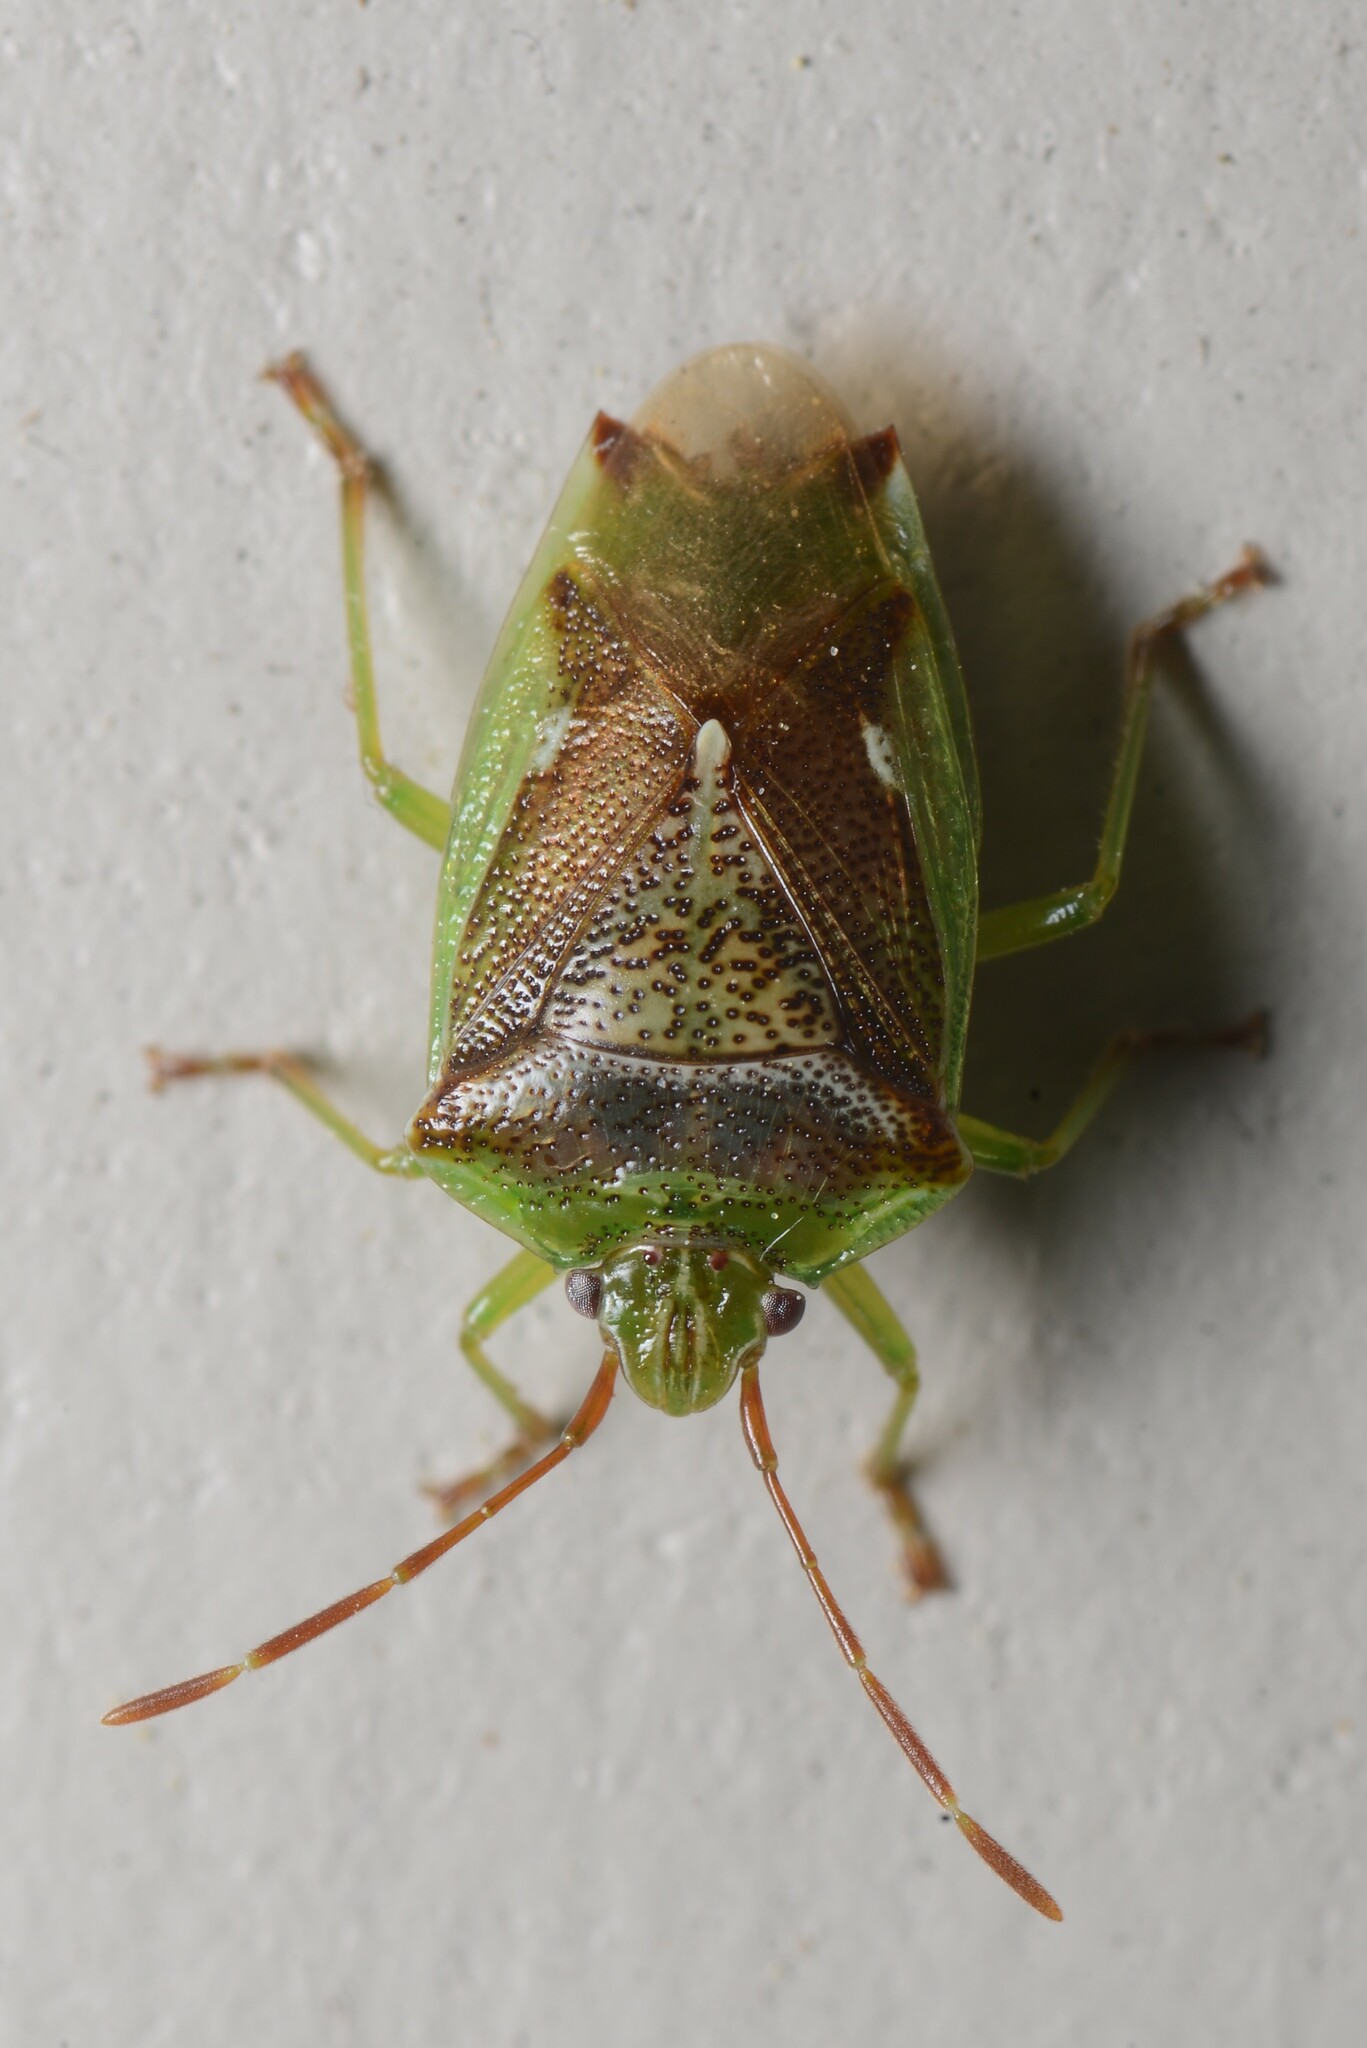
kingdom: Animalia
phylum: Arthropoda
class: Insecta
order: Hemiptera
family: Acanthosomatidae
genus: Oncacontias
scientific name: Oncacontias vittatus
